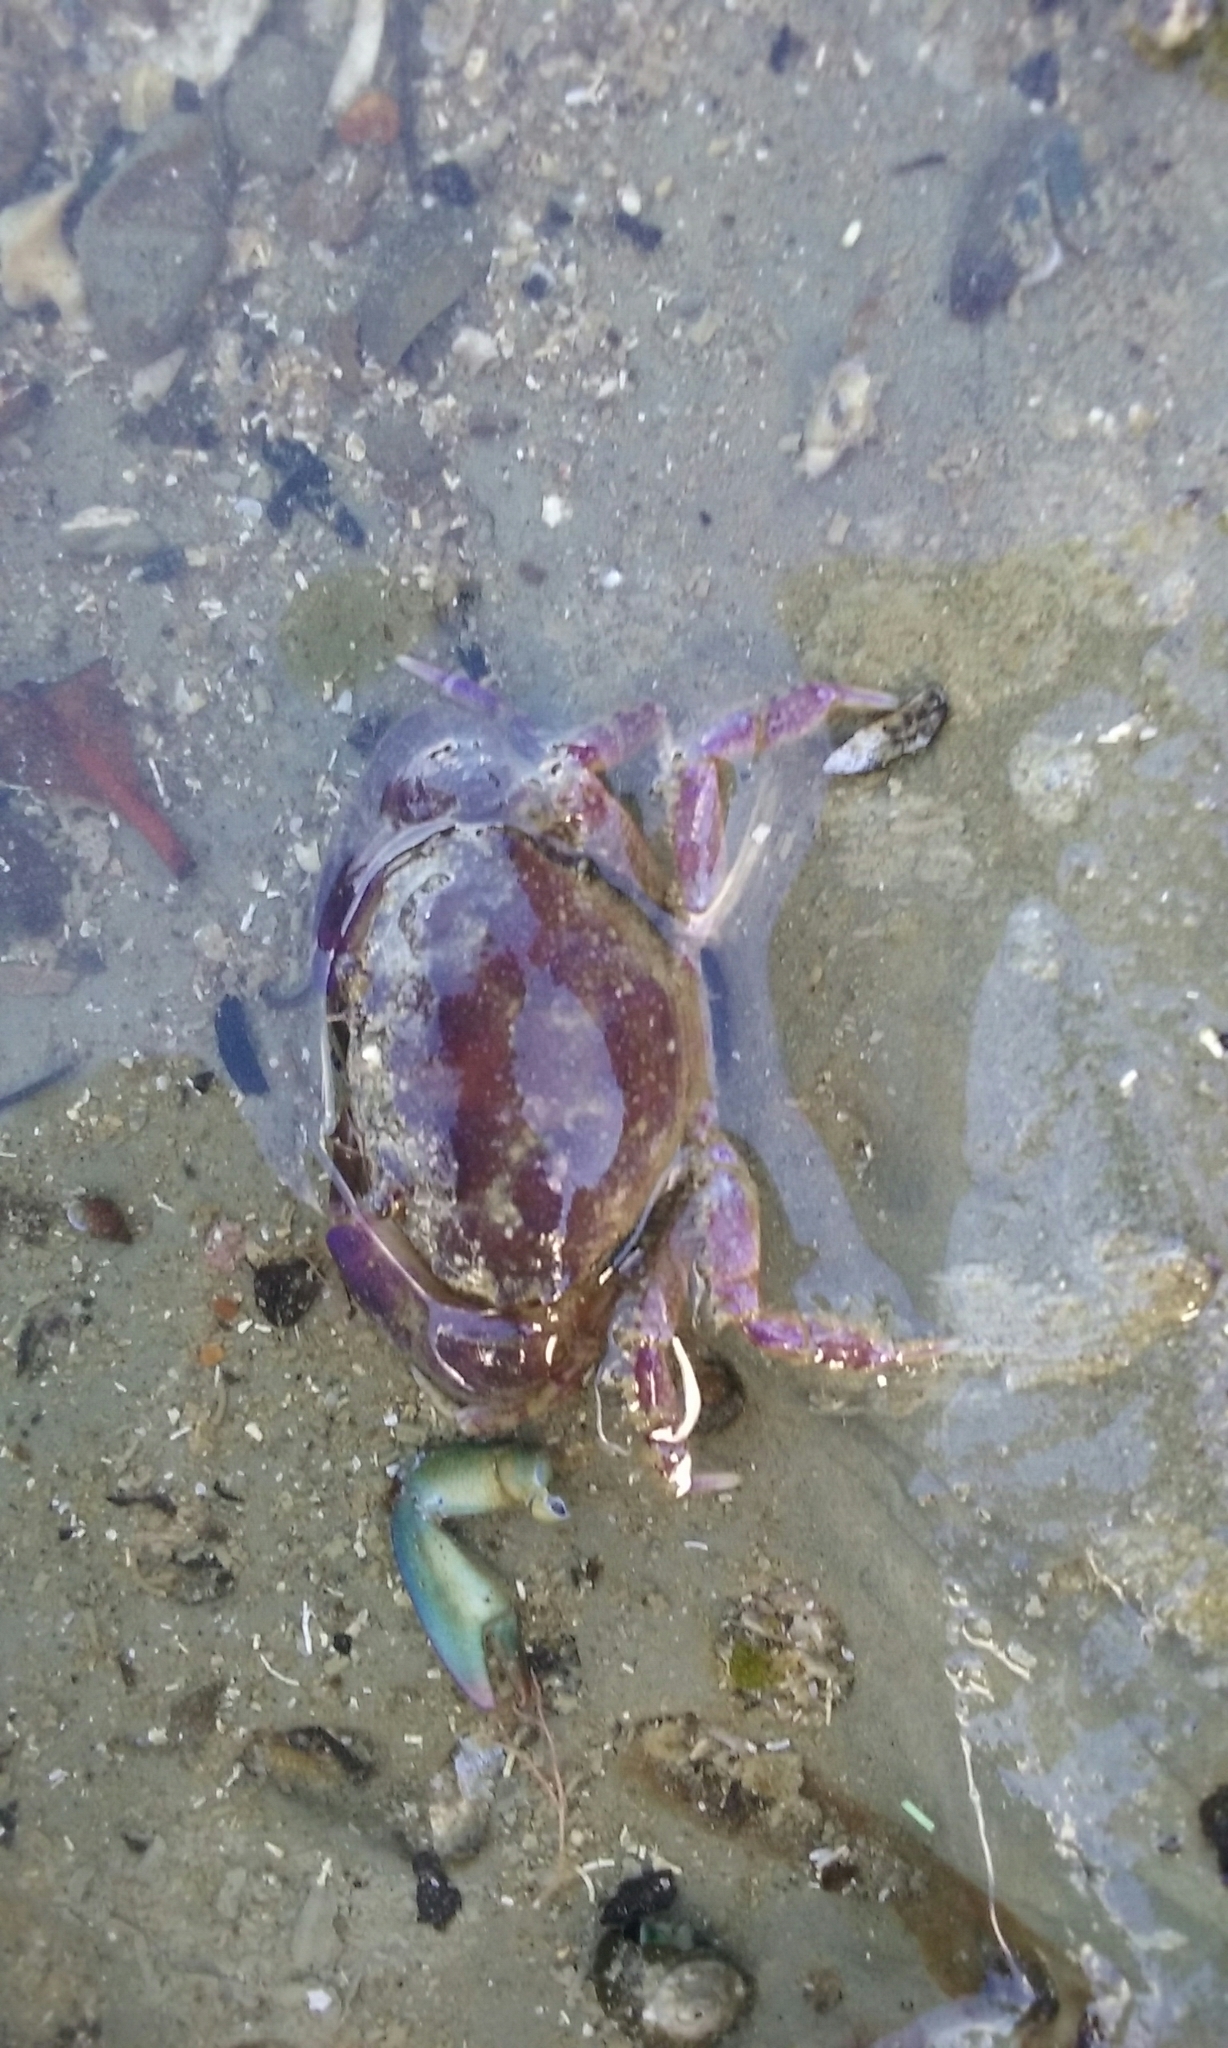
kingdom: Animalia
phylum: Arthropoda
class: Malacostraca
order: Decapoda
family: Oziidae
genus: Ozius
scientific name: Ozius deplanatus
